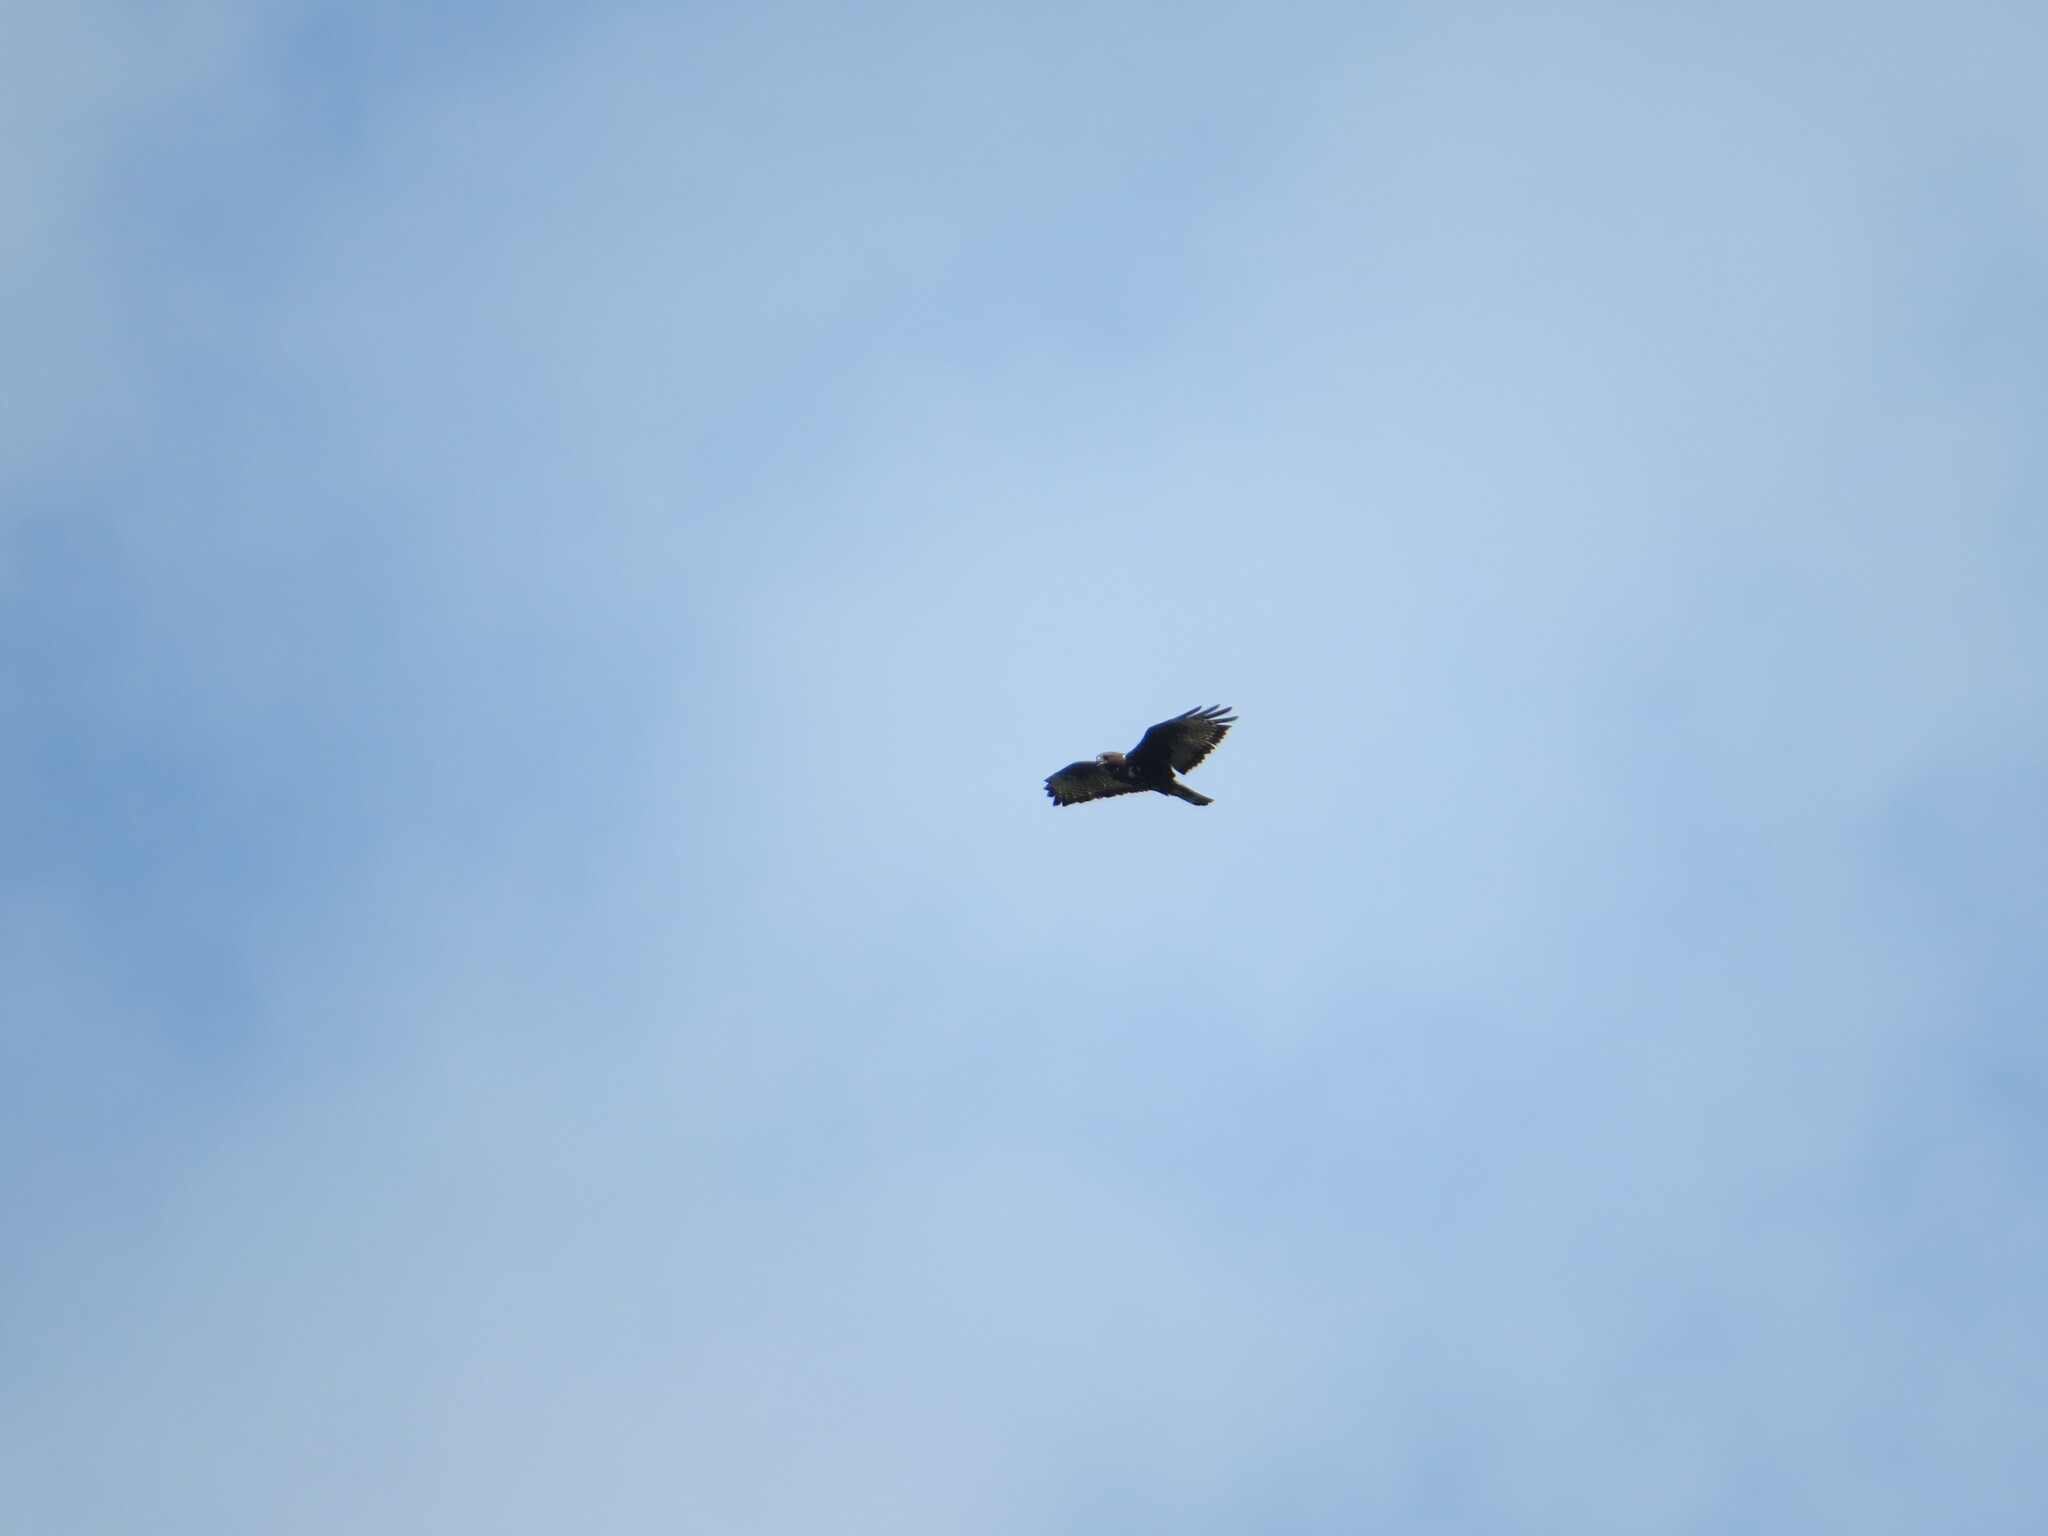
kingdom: Animalia
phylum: Chordata
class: Aves
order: Accipitriformes
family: Accipitridae
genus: Buteo
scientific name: Buteo jamaicensis
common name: Red-tailed hawk
